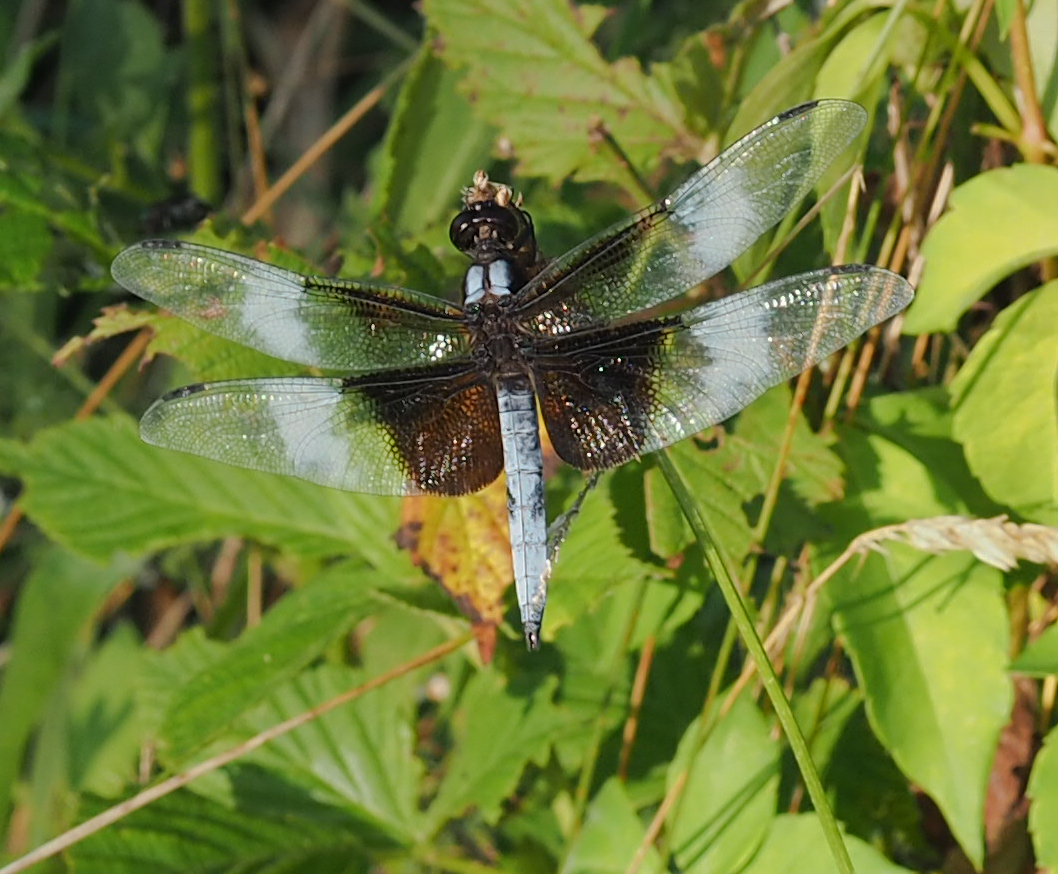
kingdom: Animalia
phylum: Arthropoda
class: Insecta
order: Odonata
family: Libellulidae
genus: Libellula
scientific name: Libellula luctuosa
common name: Widow skimmer
